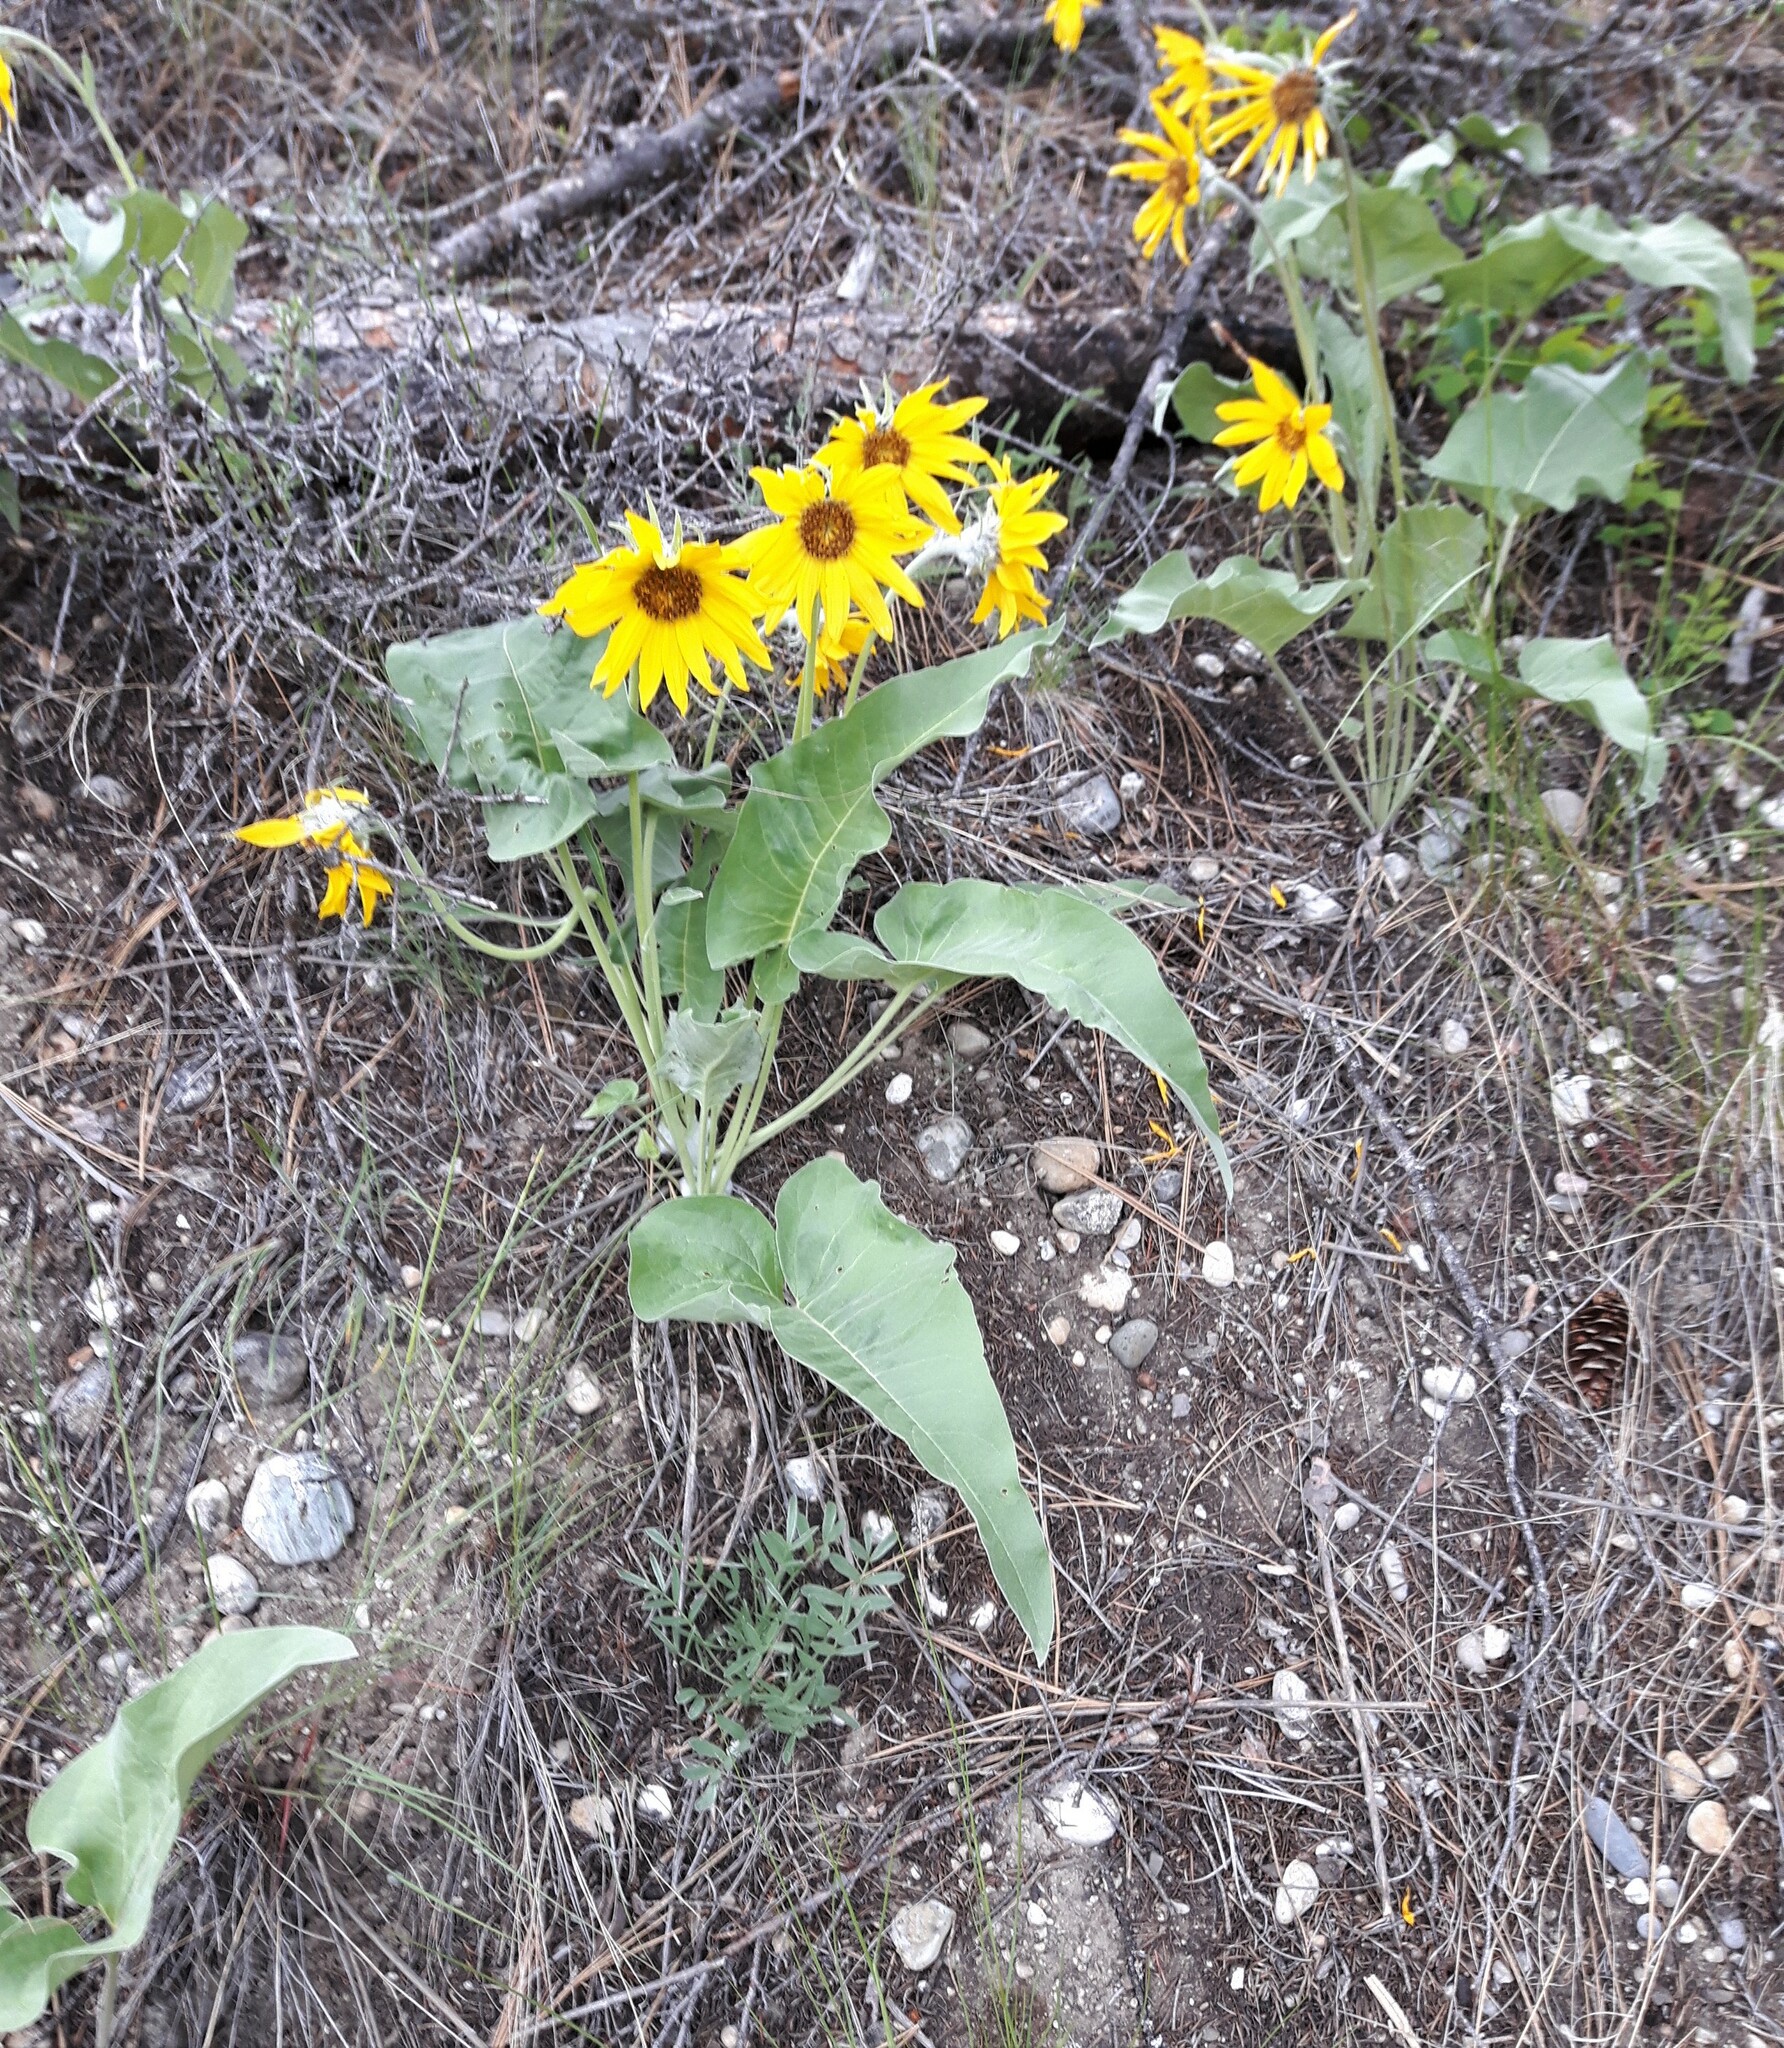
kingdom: Plantae
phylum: Tracheophyta
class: Magnoliopsida
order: Asterales
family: Asteraceae
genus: Wyethia
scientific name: Wyethia sagittata
